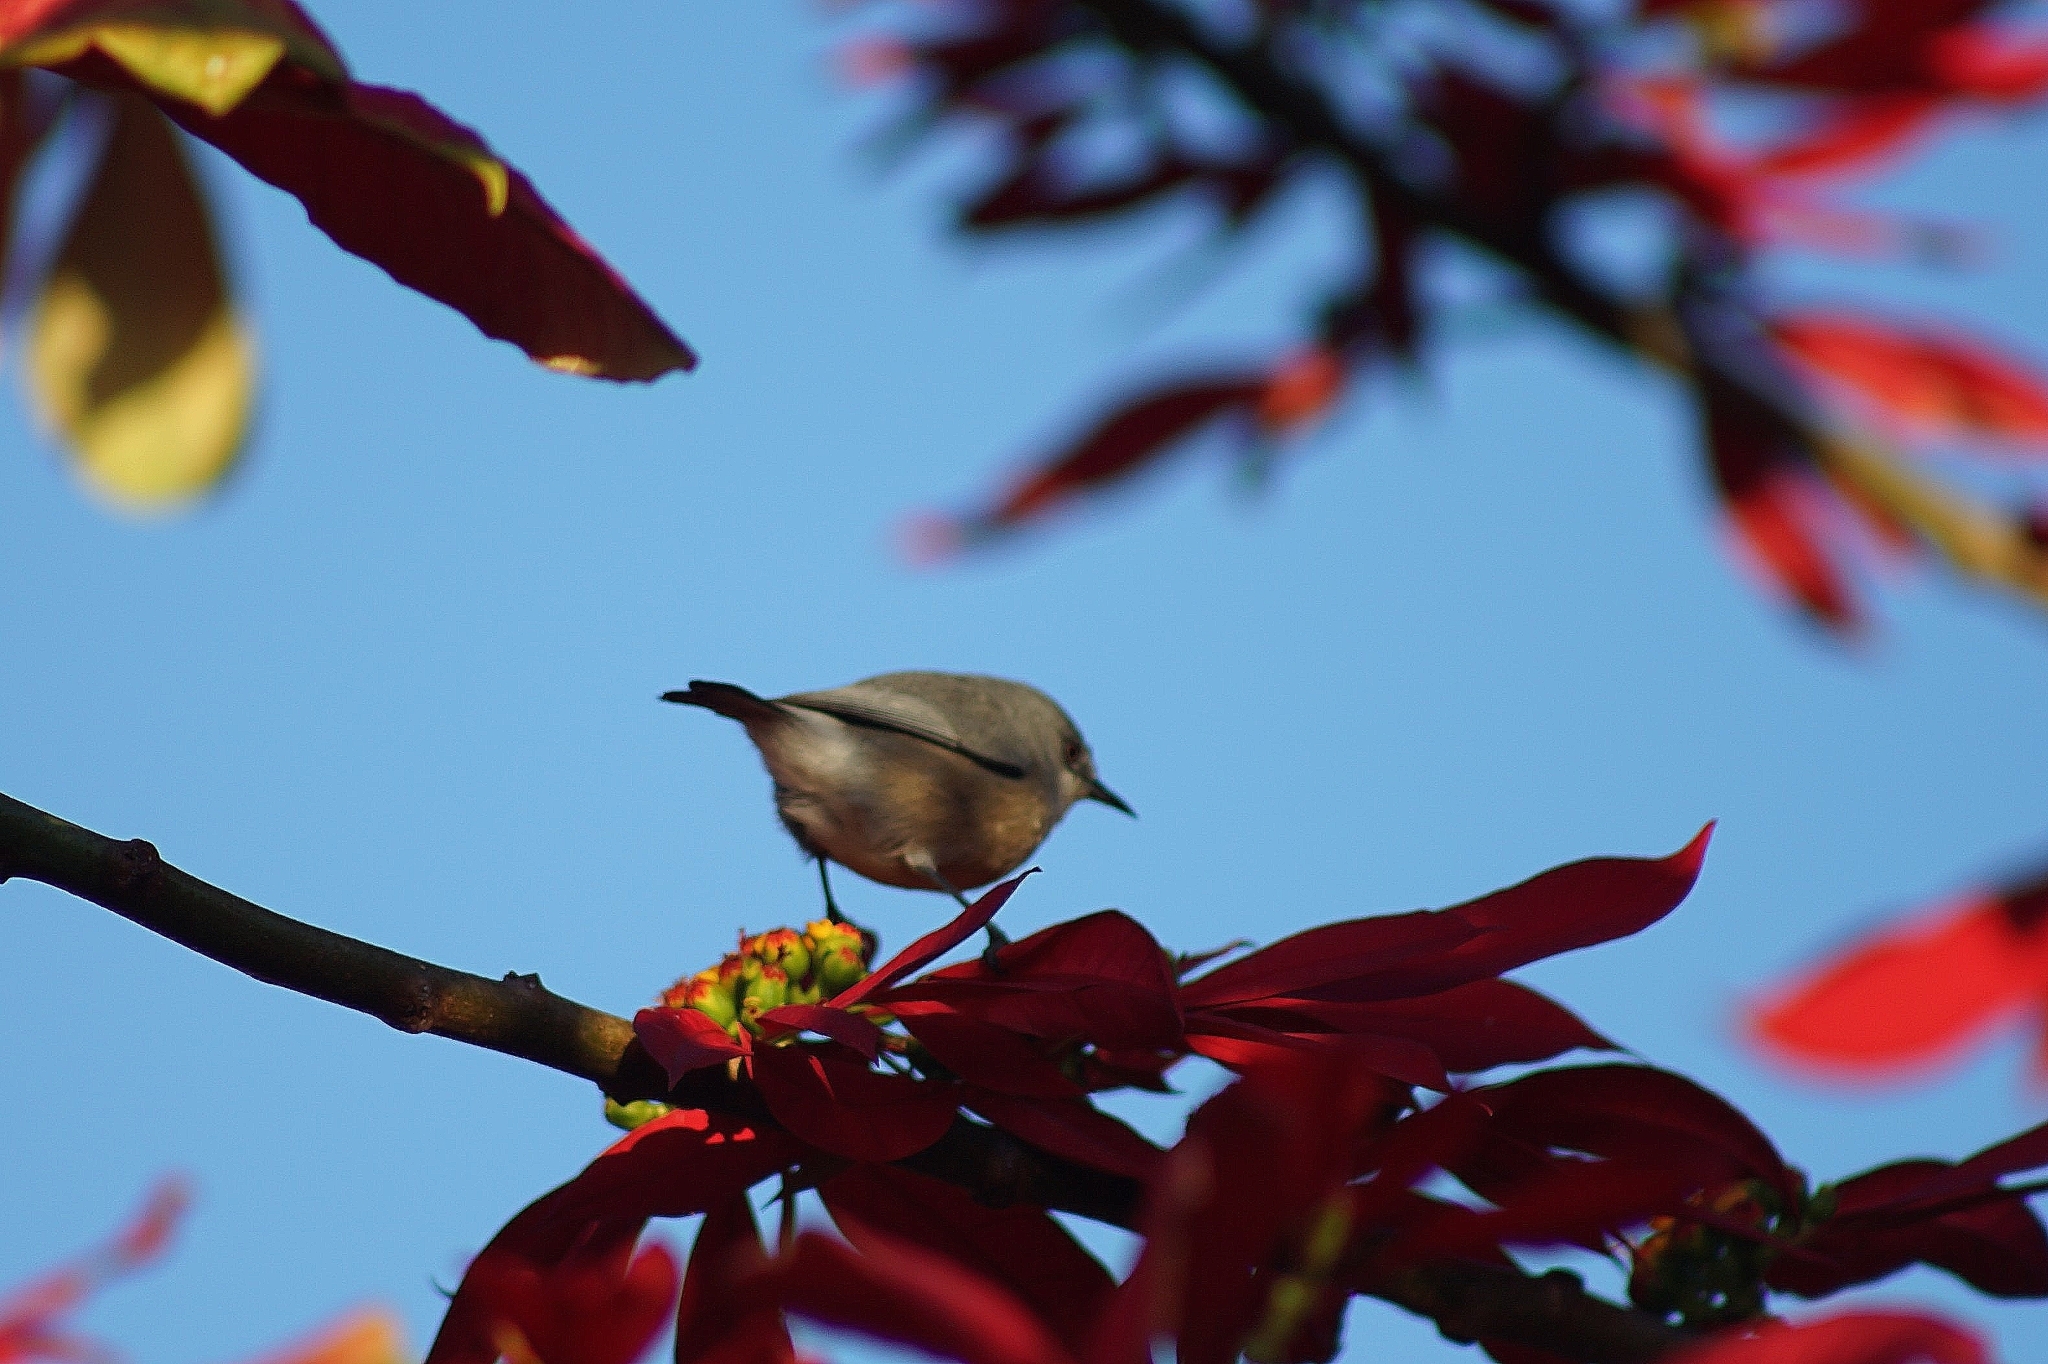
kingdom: Animalia
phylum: Chordata
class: Aves
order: Passeriformes
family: Zosteropidae
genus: Zosterops
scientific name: Zosterops mauritianus
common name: Mauritius gray white-eye
